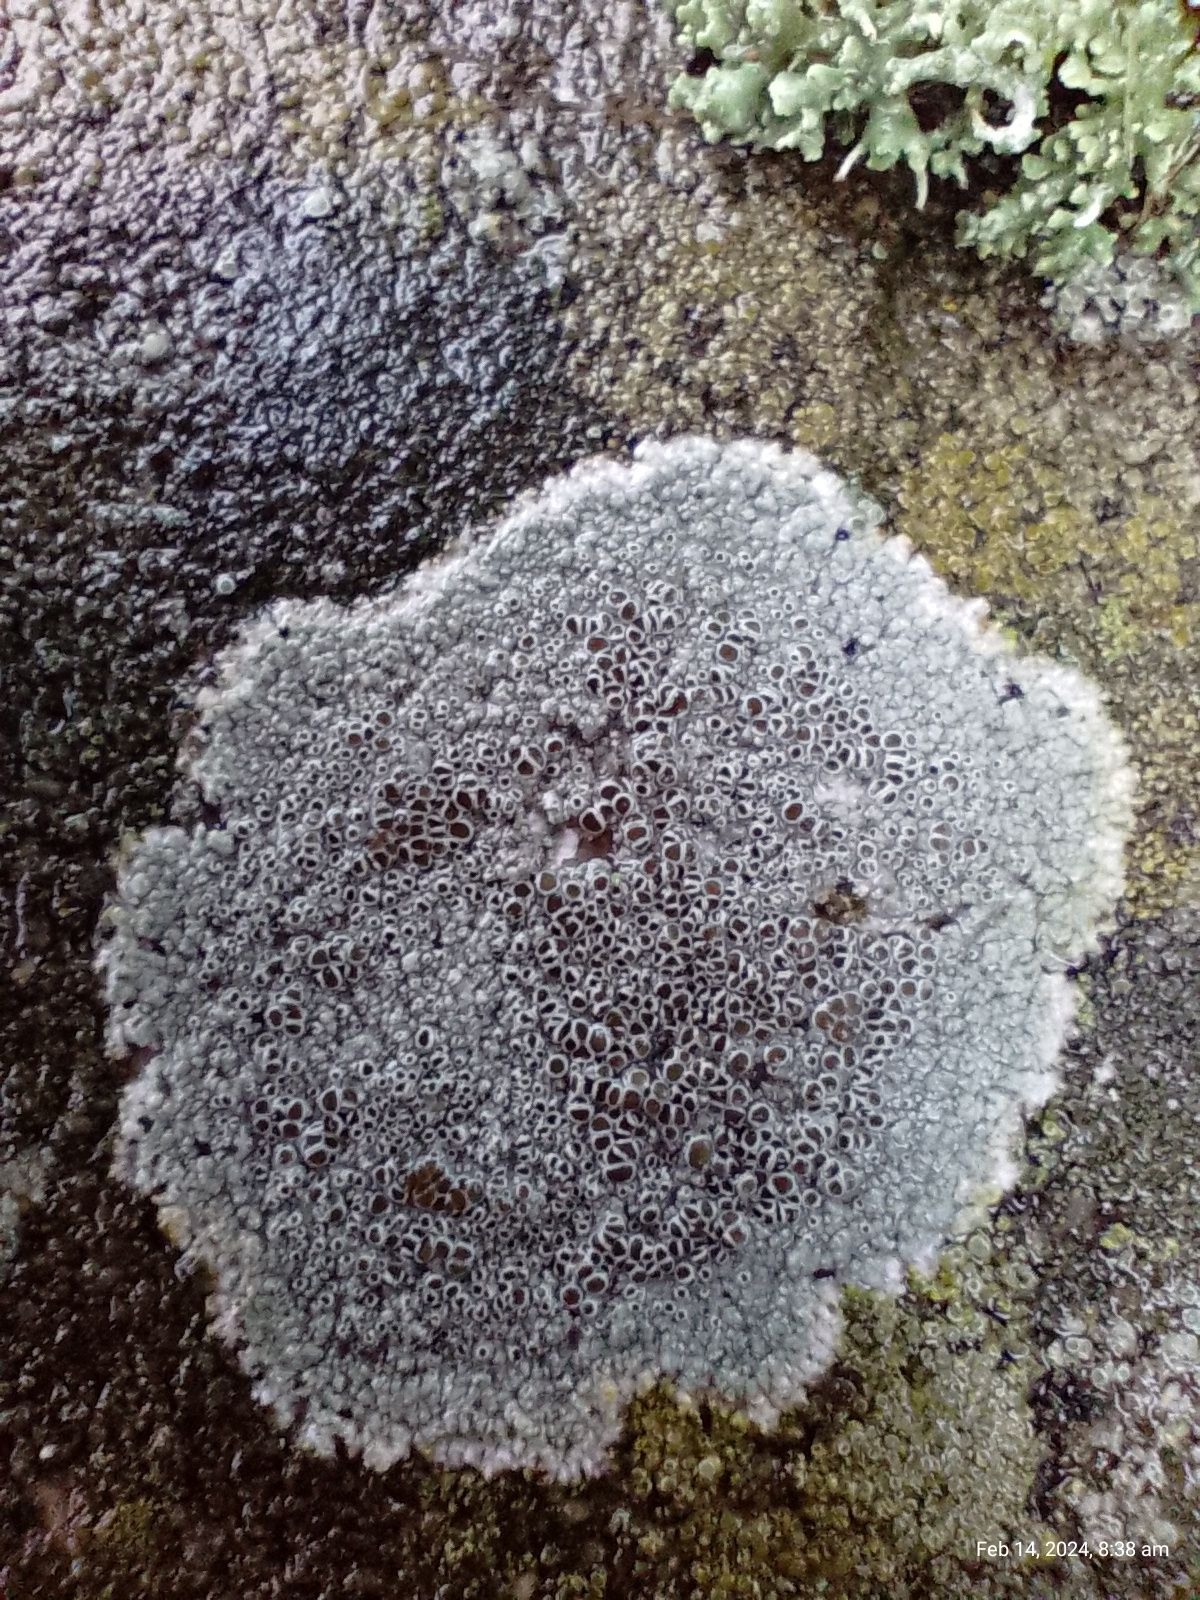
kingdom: Fungi
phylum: Ascomycota
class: Lecanoromycetes
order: Lecanorales
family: Lecanoraceae
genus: Lecanora
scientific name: Lecanora campestris
